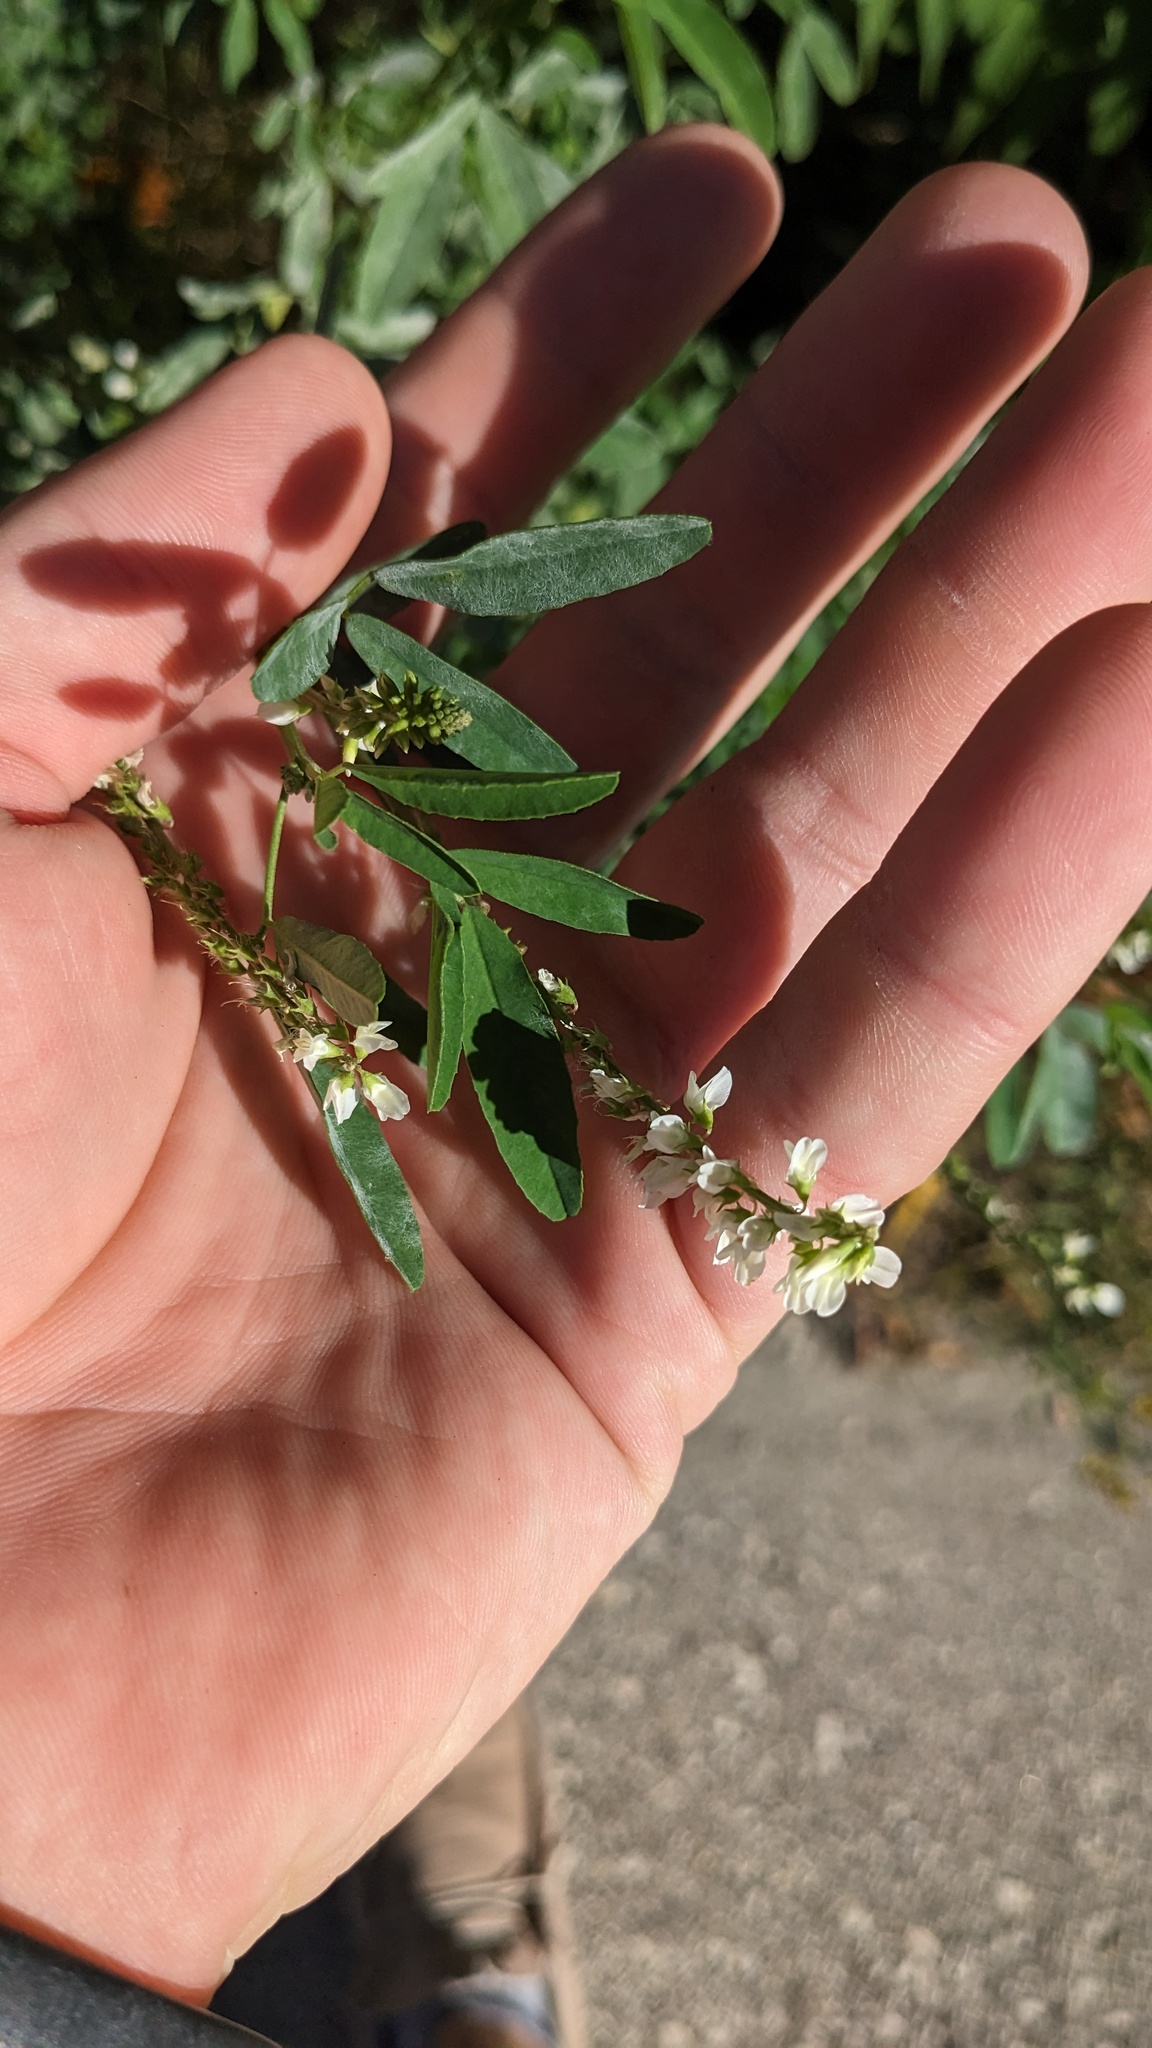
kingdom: Plantae
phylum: Tracheophyta
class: Magnoliopsida
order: Fabales
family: Fabaceae
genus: Melilotus
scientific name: Melilotus albus
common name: White melilot
